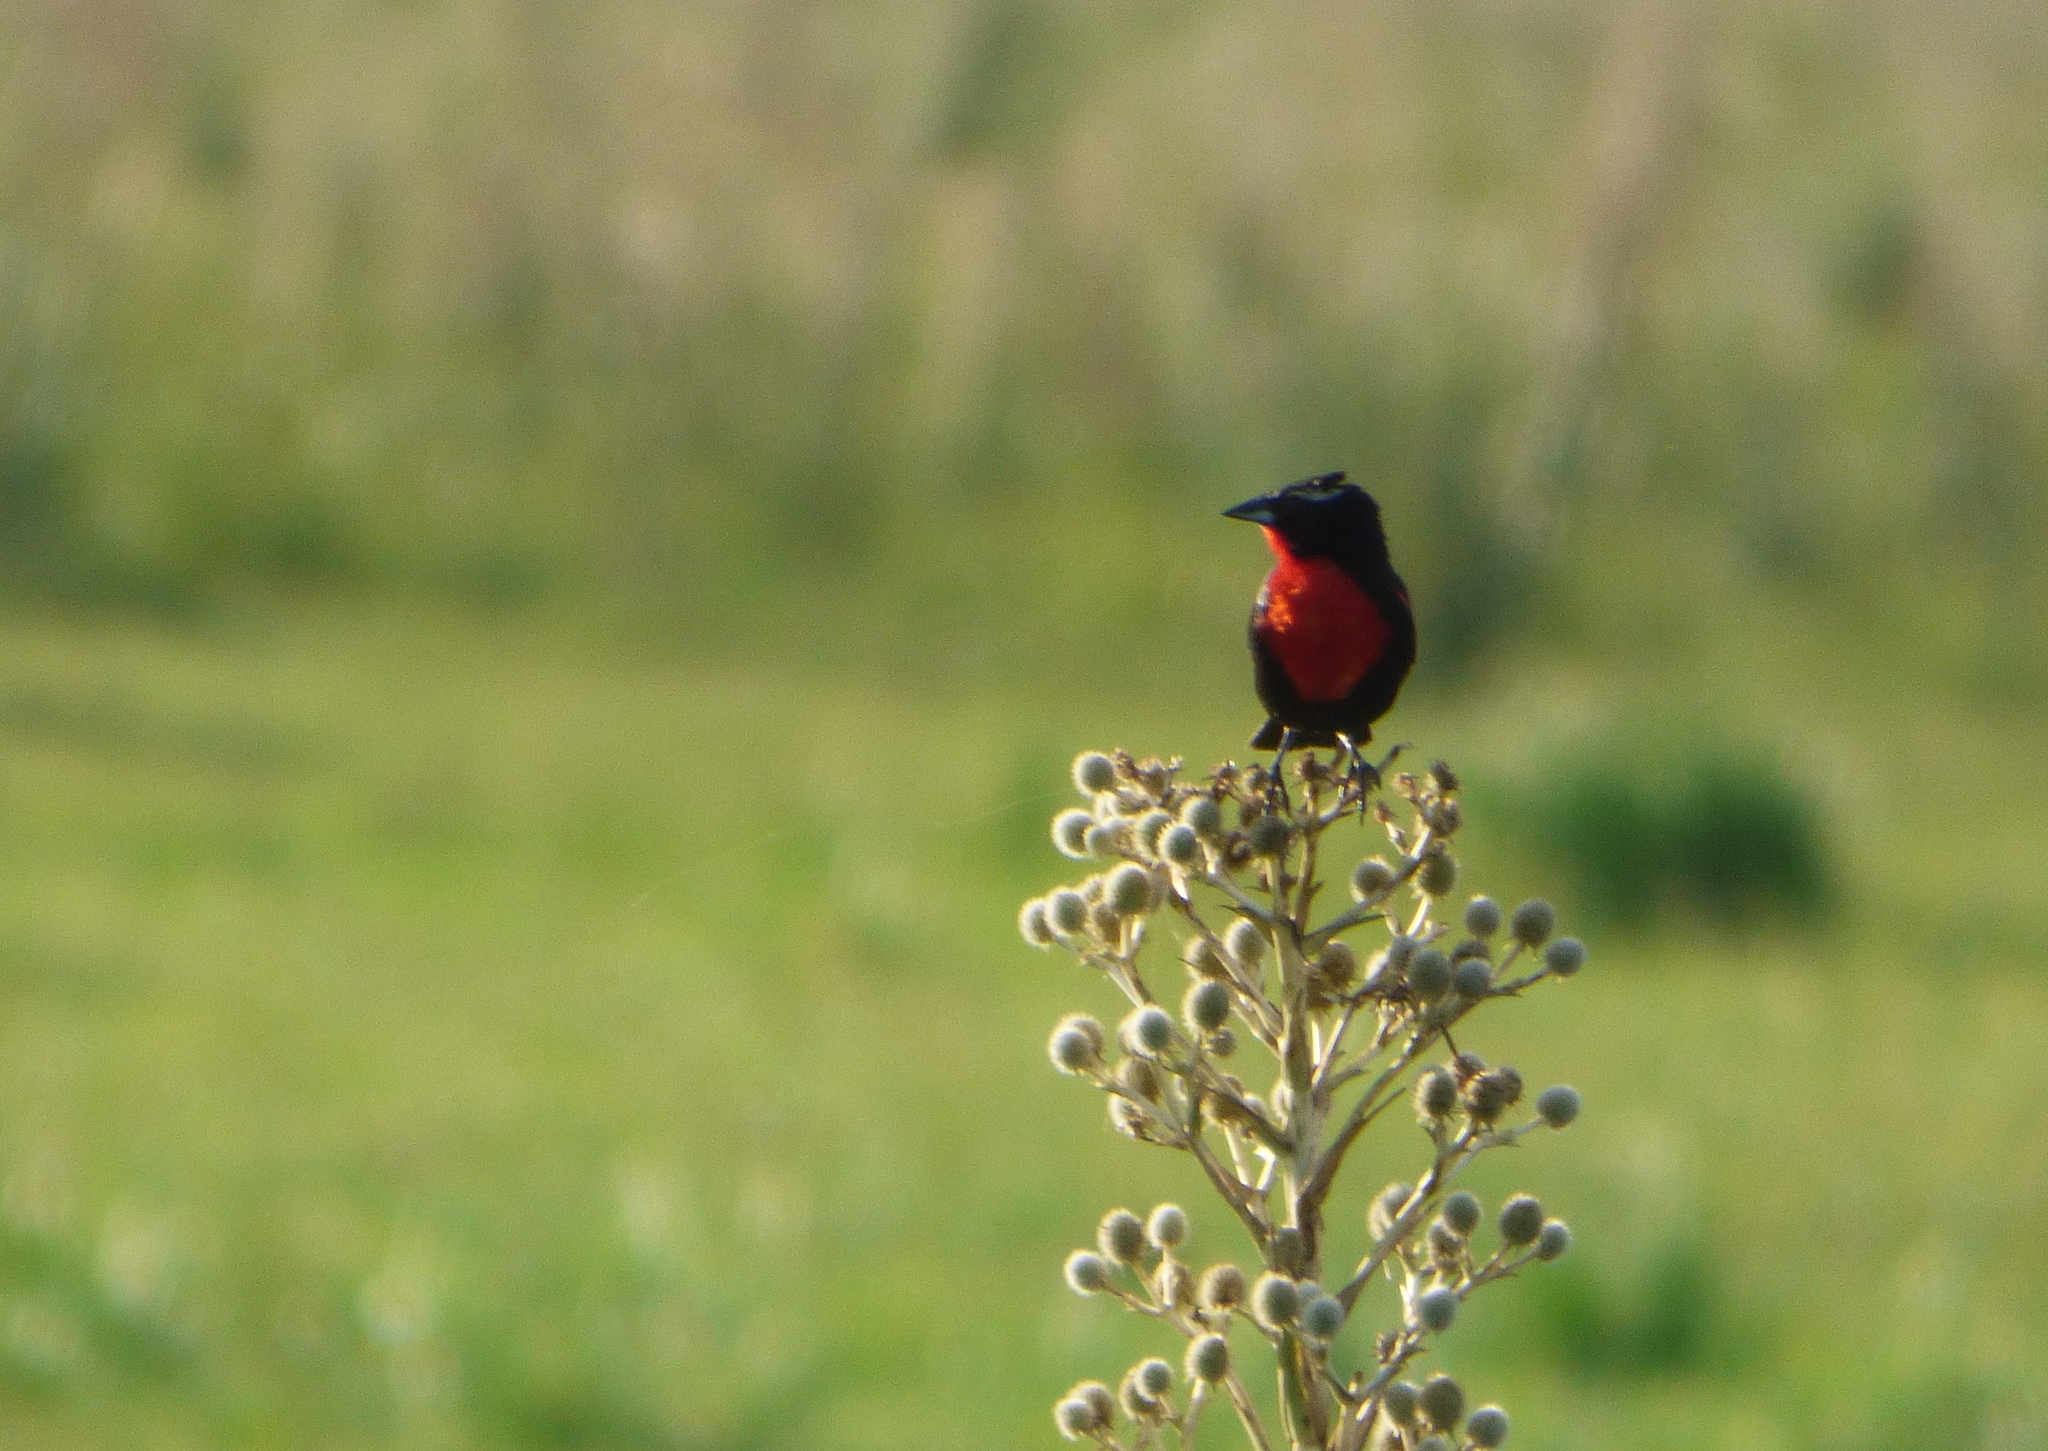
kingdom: Animalia
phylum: Chordata
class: Aves
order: Passeriformes
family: Icteridae
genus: Sturnella
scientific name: Sturnella superciliaris
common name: White-browed blackbird
